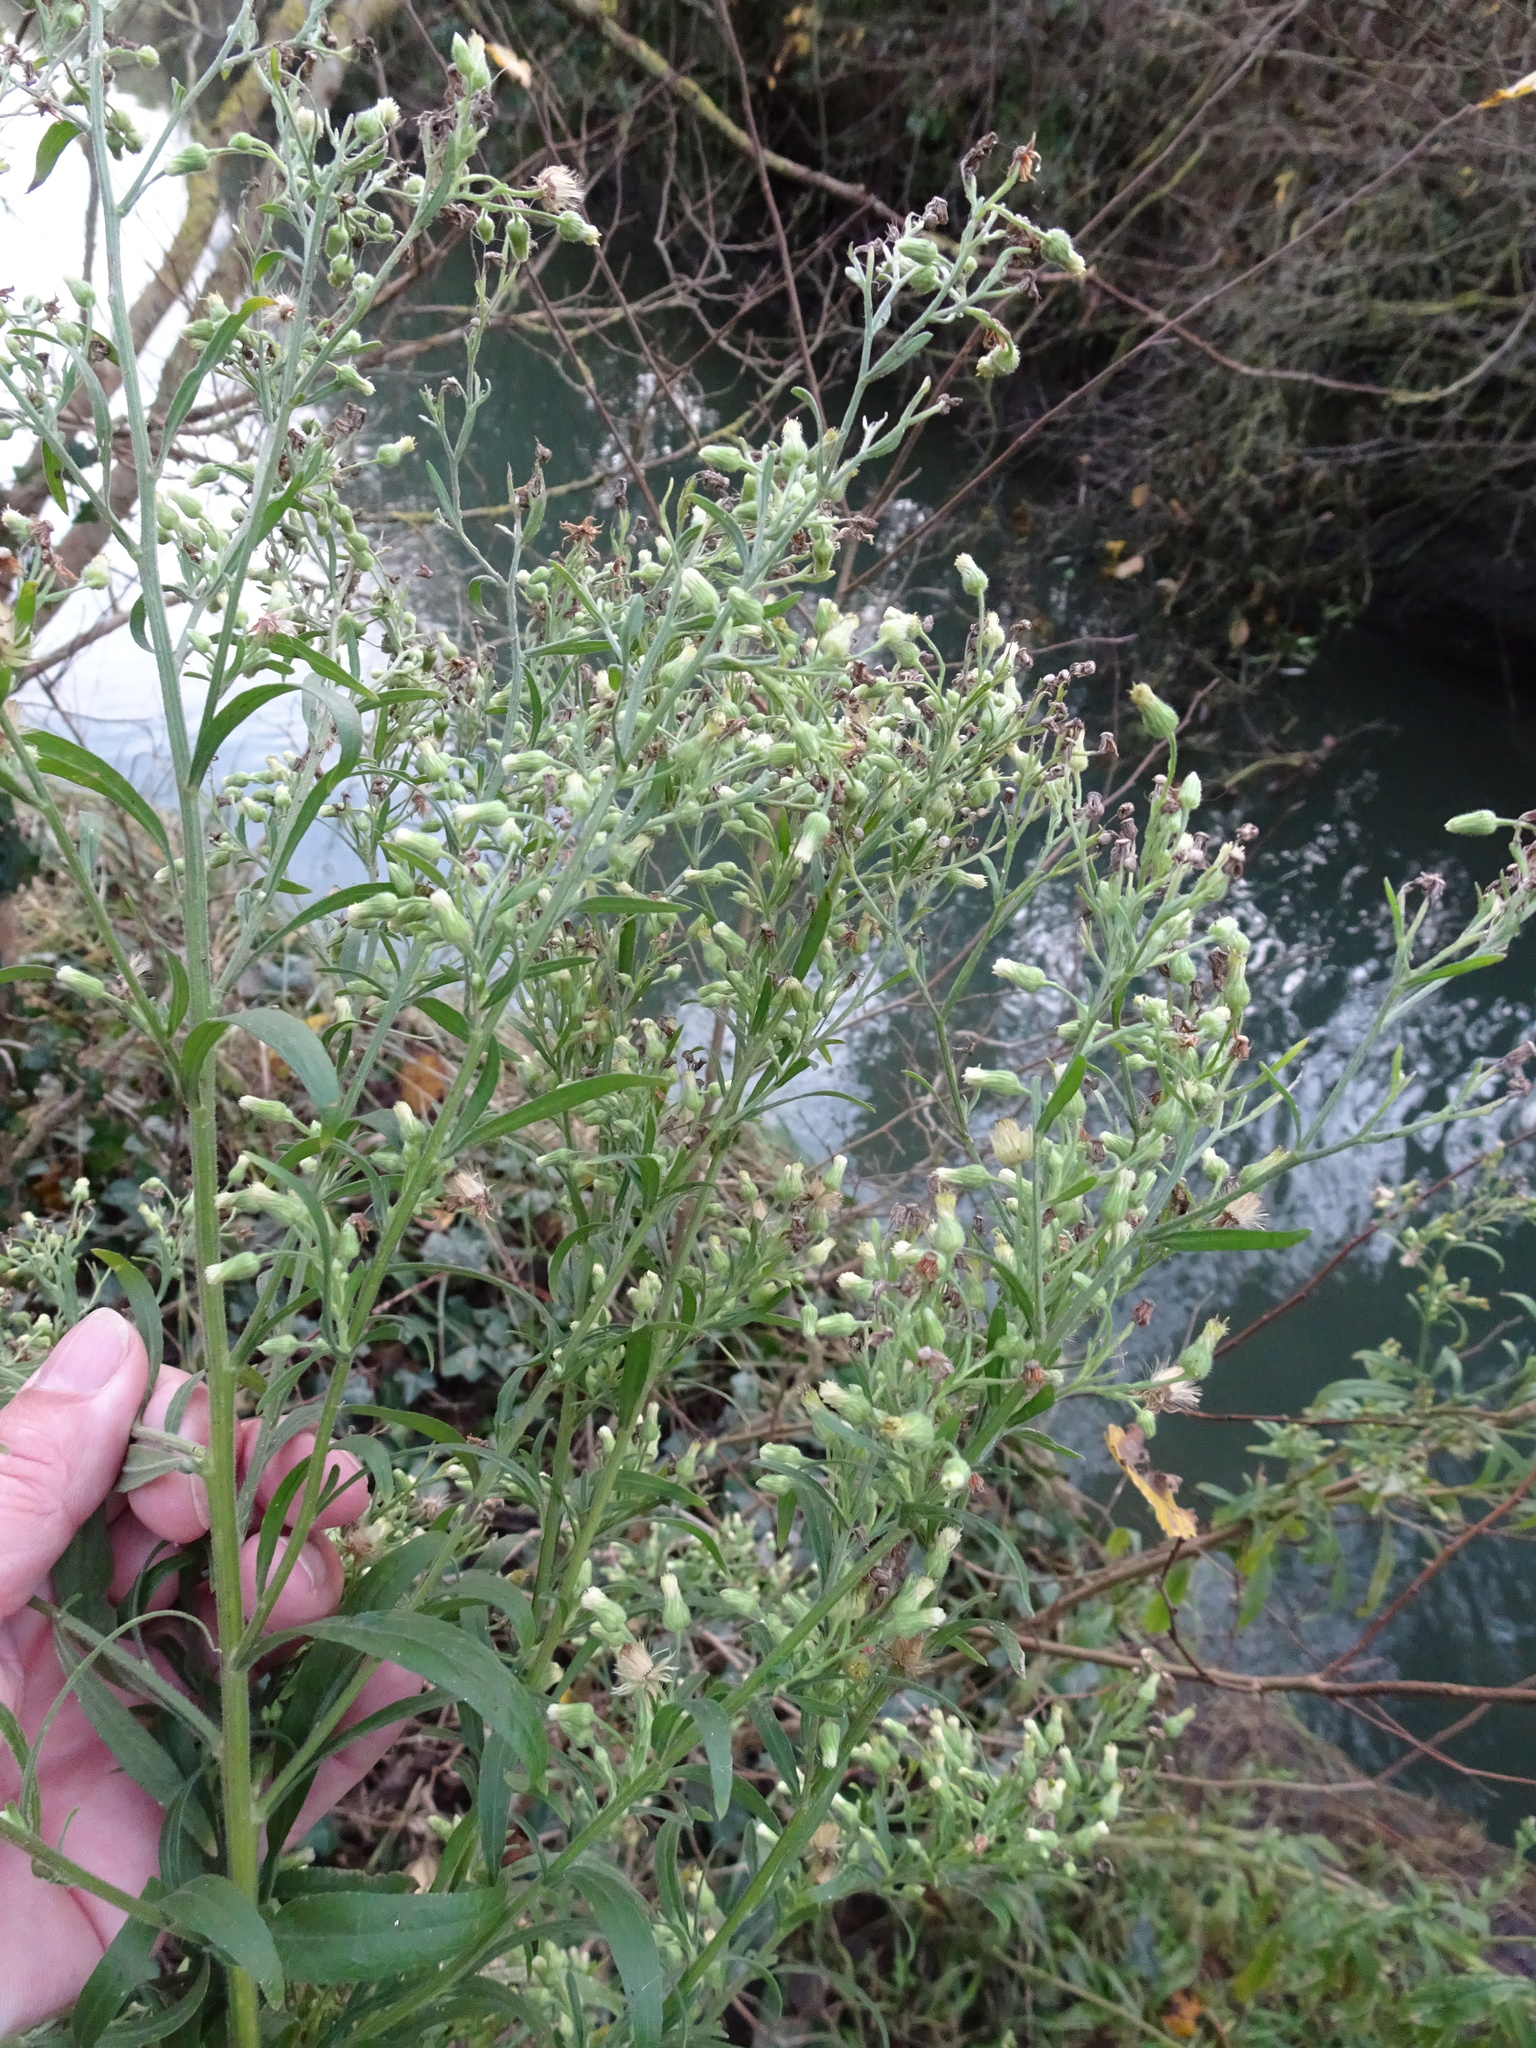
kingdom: Plantae
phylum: Tracheophyta
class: Magnoliopsida
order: Asterales
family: Asteraceae
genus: Erigeron
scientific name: Erigeron sumatrensis
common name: Daisy
